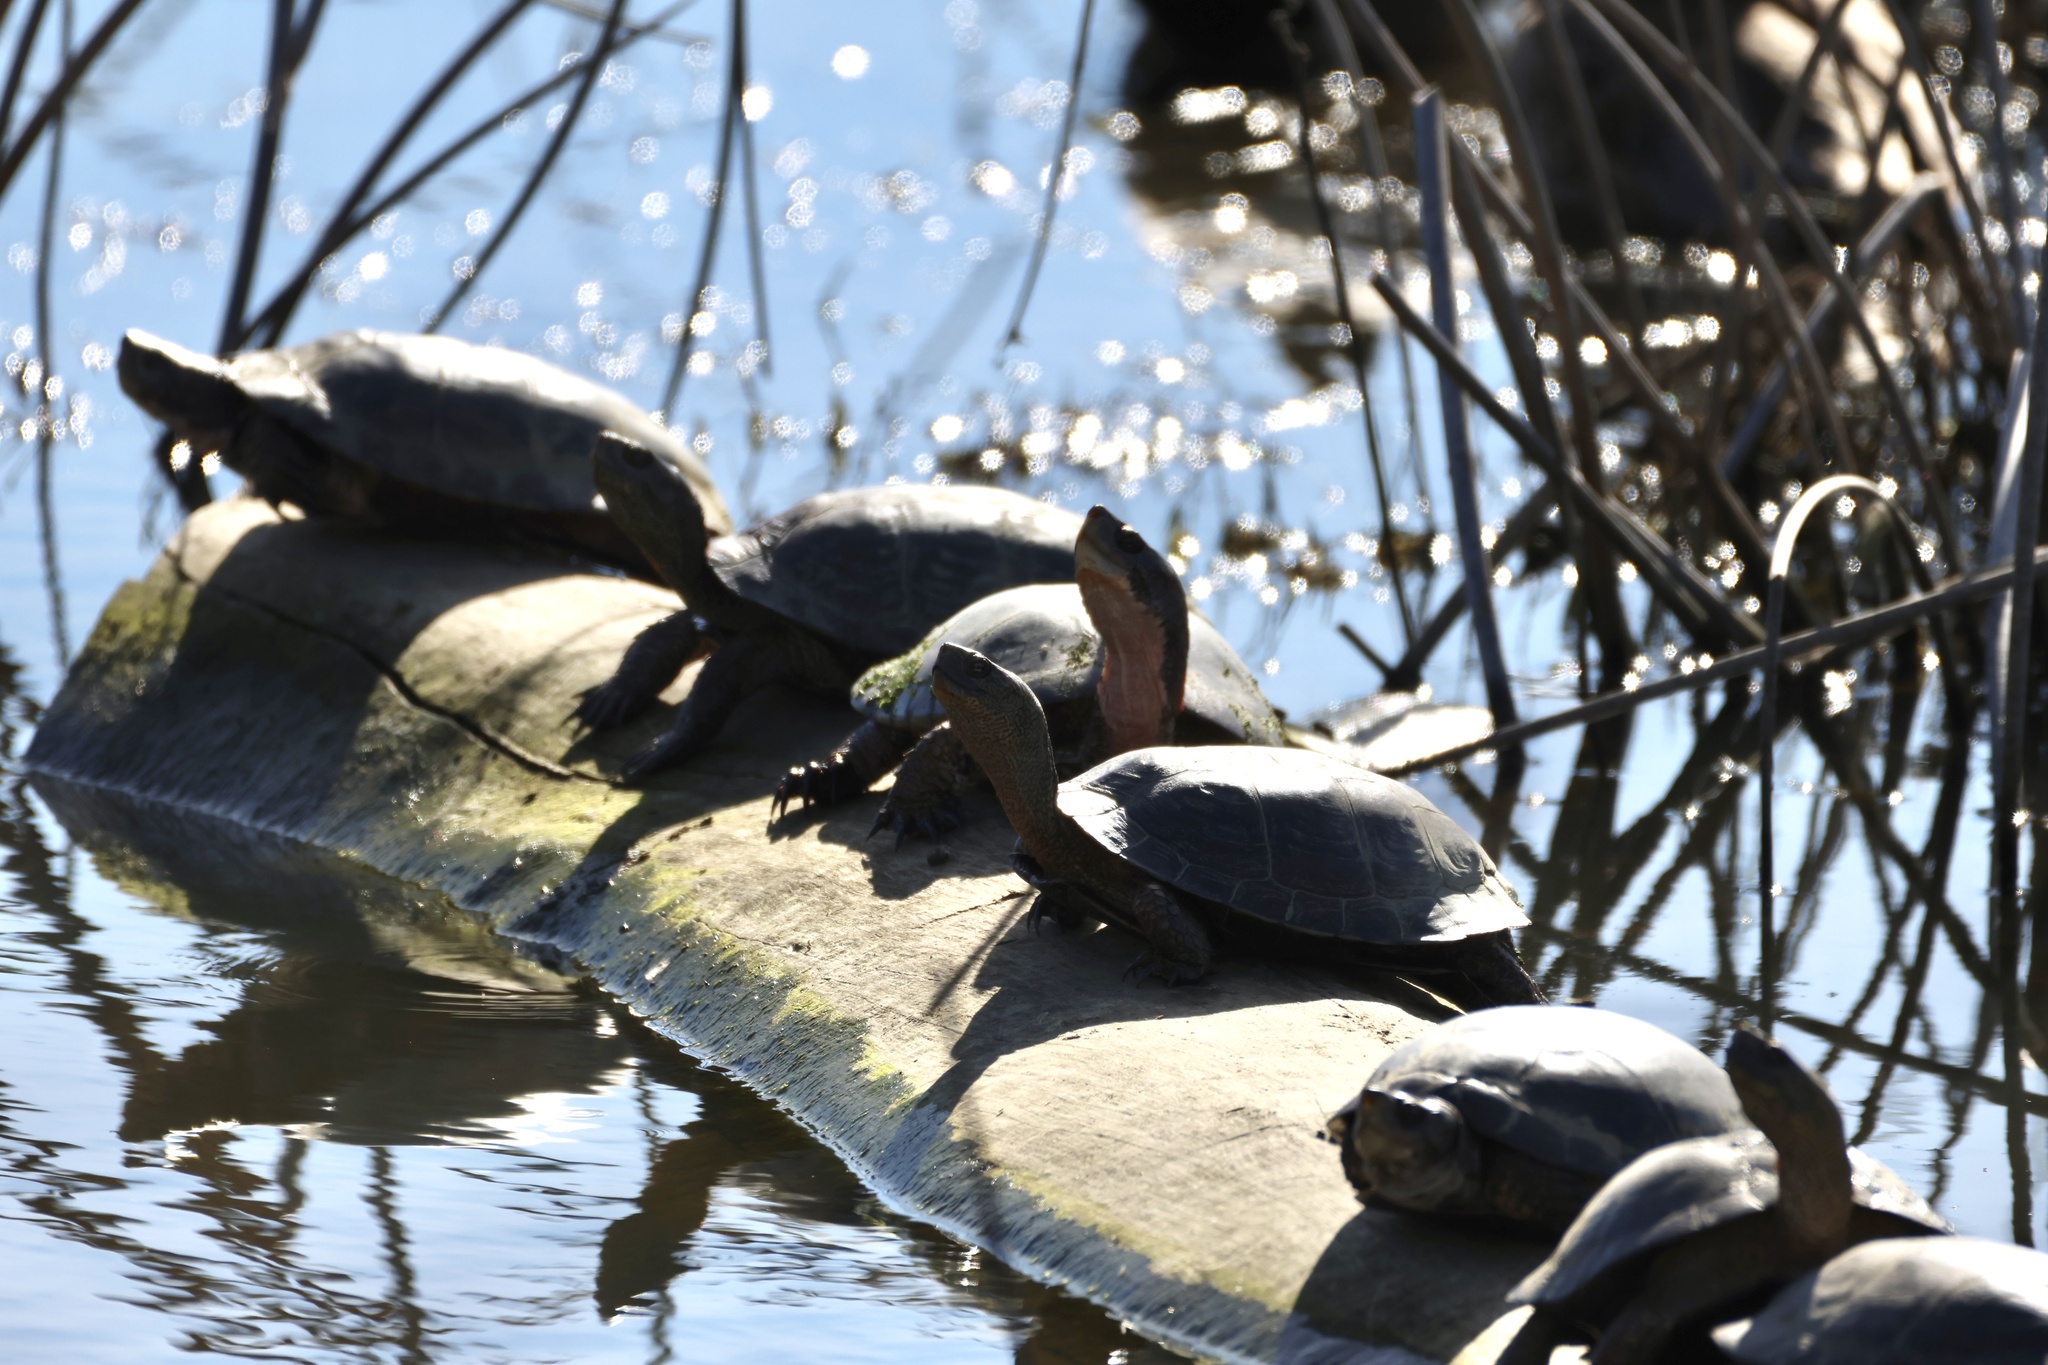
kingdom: Animalia
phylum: Chordata
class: Testudines
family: Emydidae
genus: Actinemys
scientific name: Actinemys marmorata
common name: Western pond turtle
